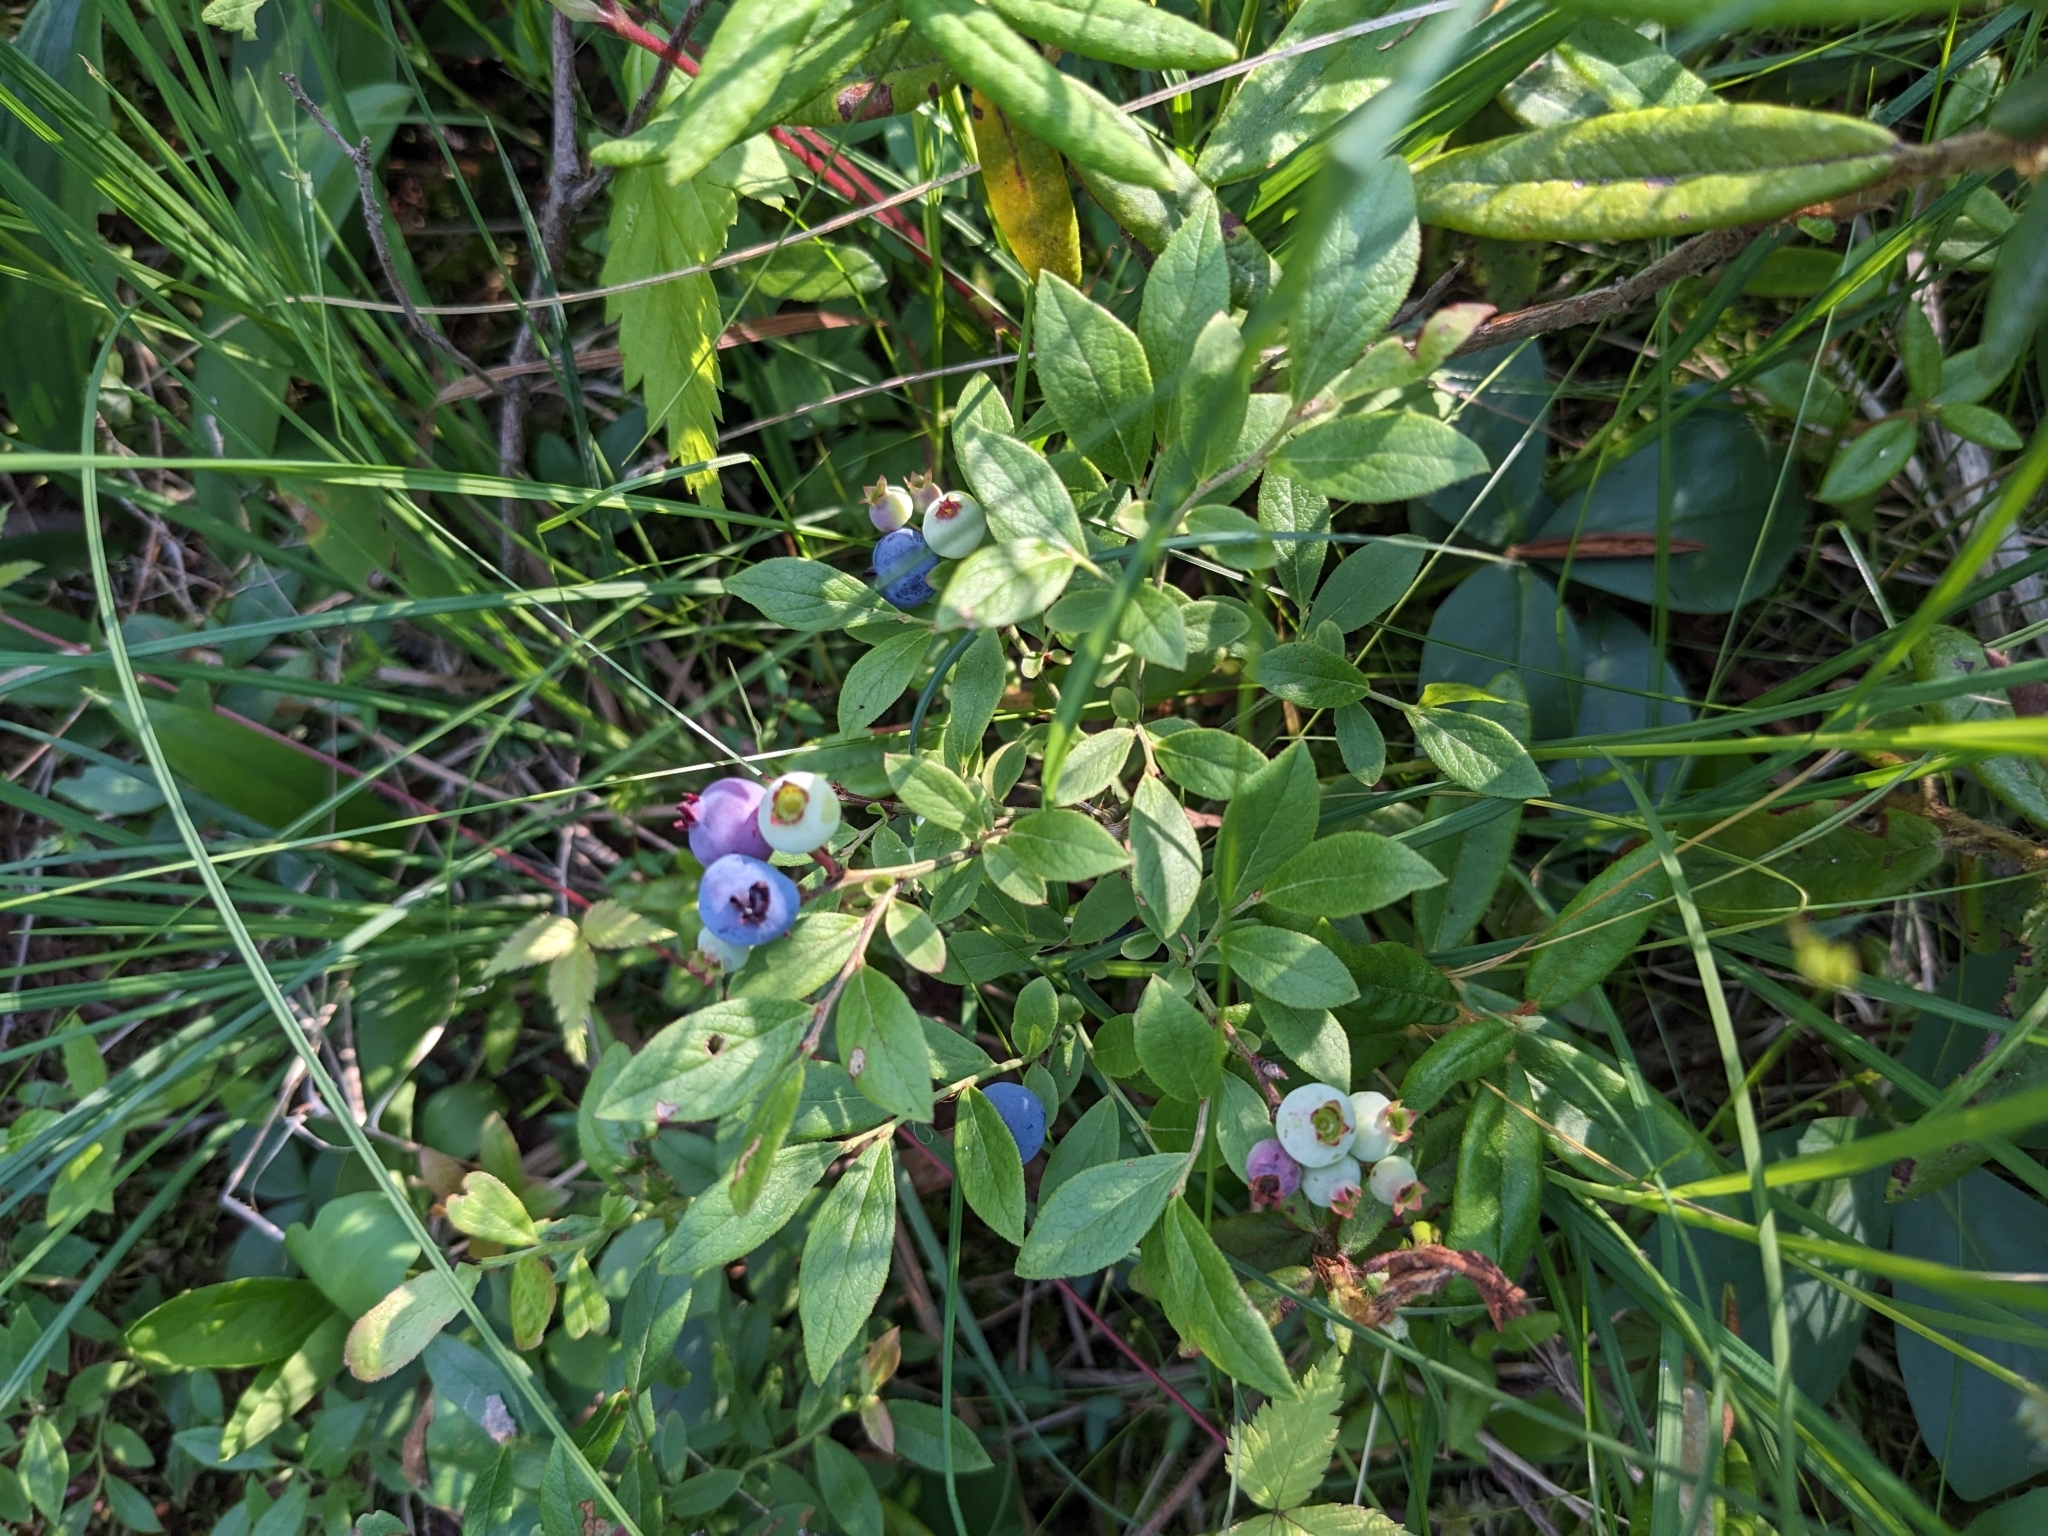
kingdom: Plantae
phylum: Tracheophyta
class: Magnoliopsida
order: Ericales
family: Ericaceae
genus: Vaccinium
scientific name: Vaccinium angustifolium
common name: Early lowbush blueberry
